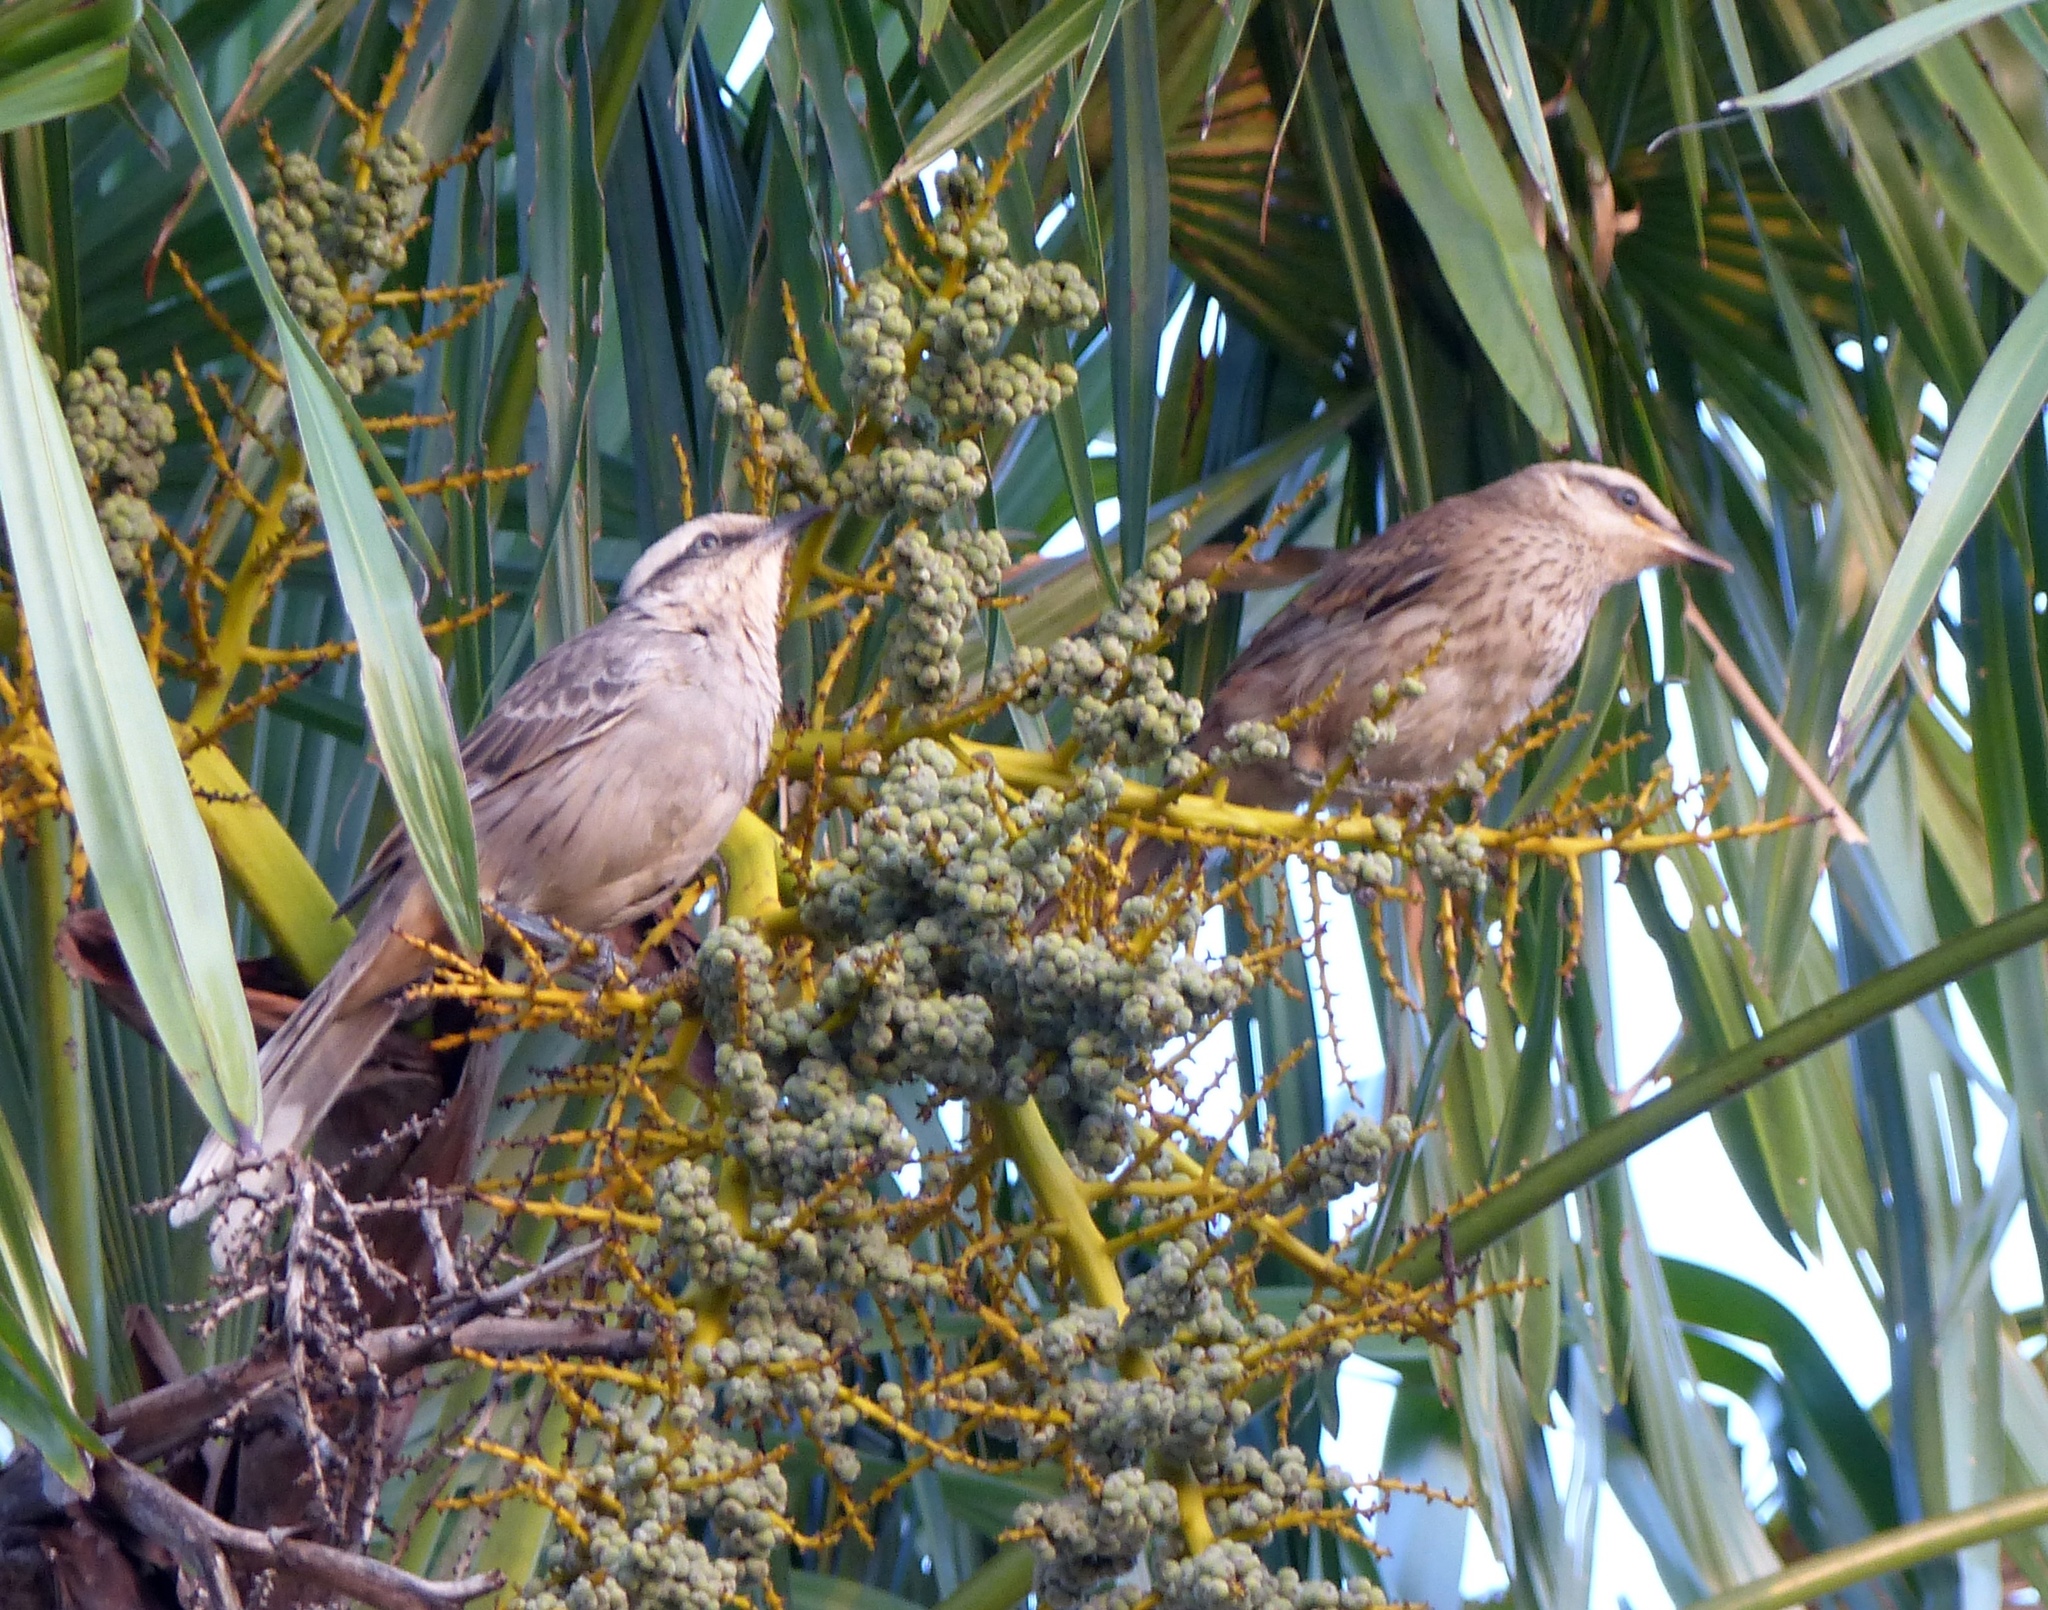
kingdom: Animalia
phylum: Chordata
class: Aves
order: Passeriformes
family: Mimidae
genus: Mimus
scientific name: Mimus saturninus
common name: Chalk-browed mockingbird
